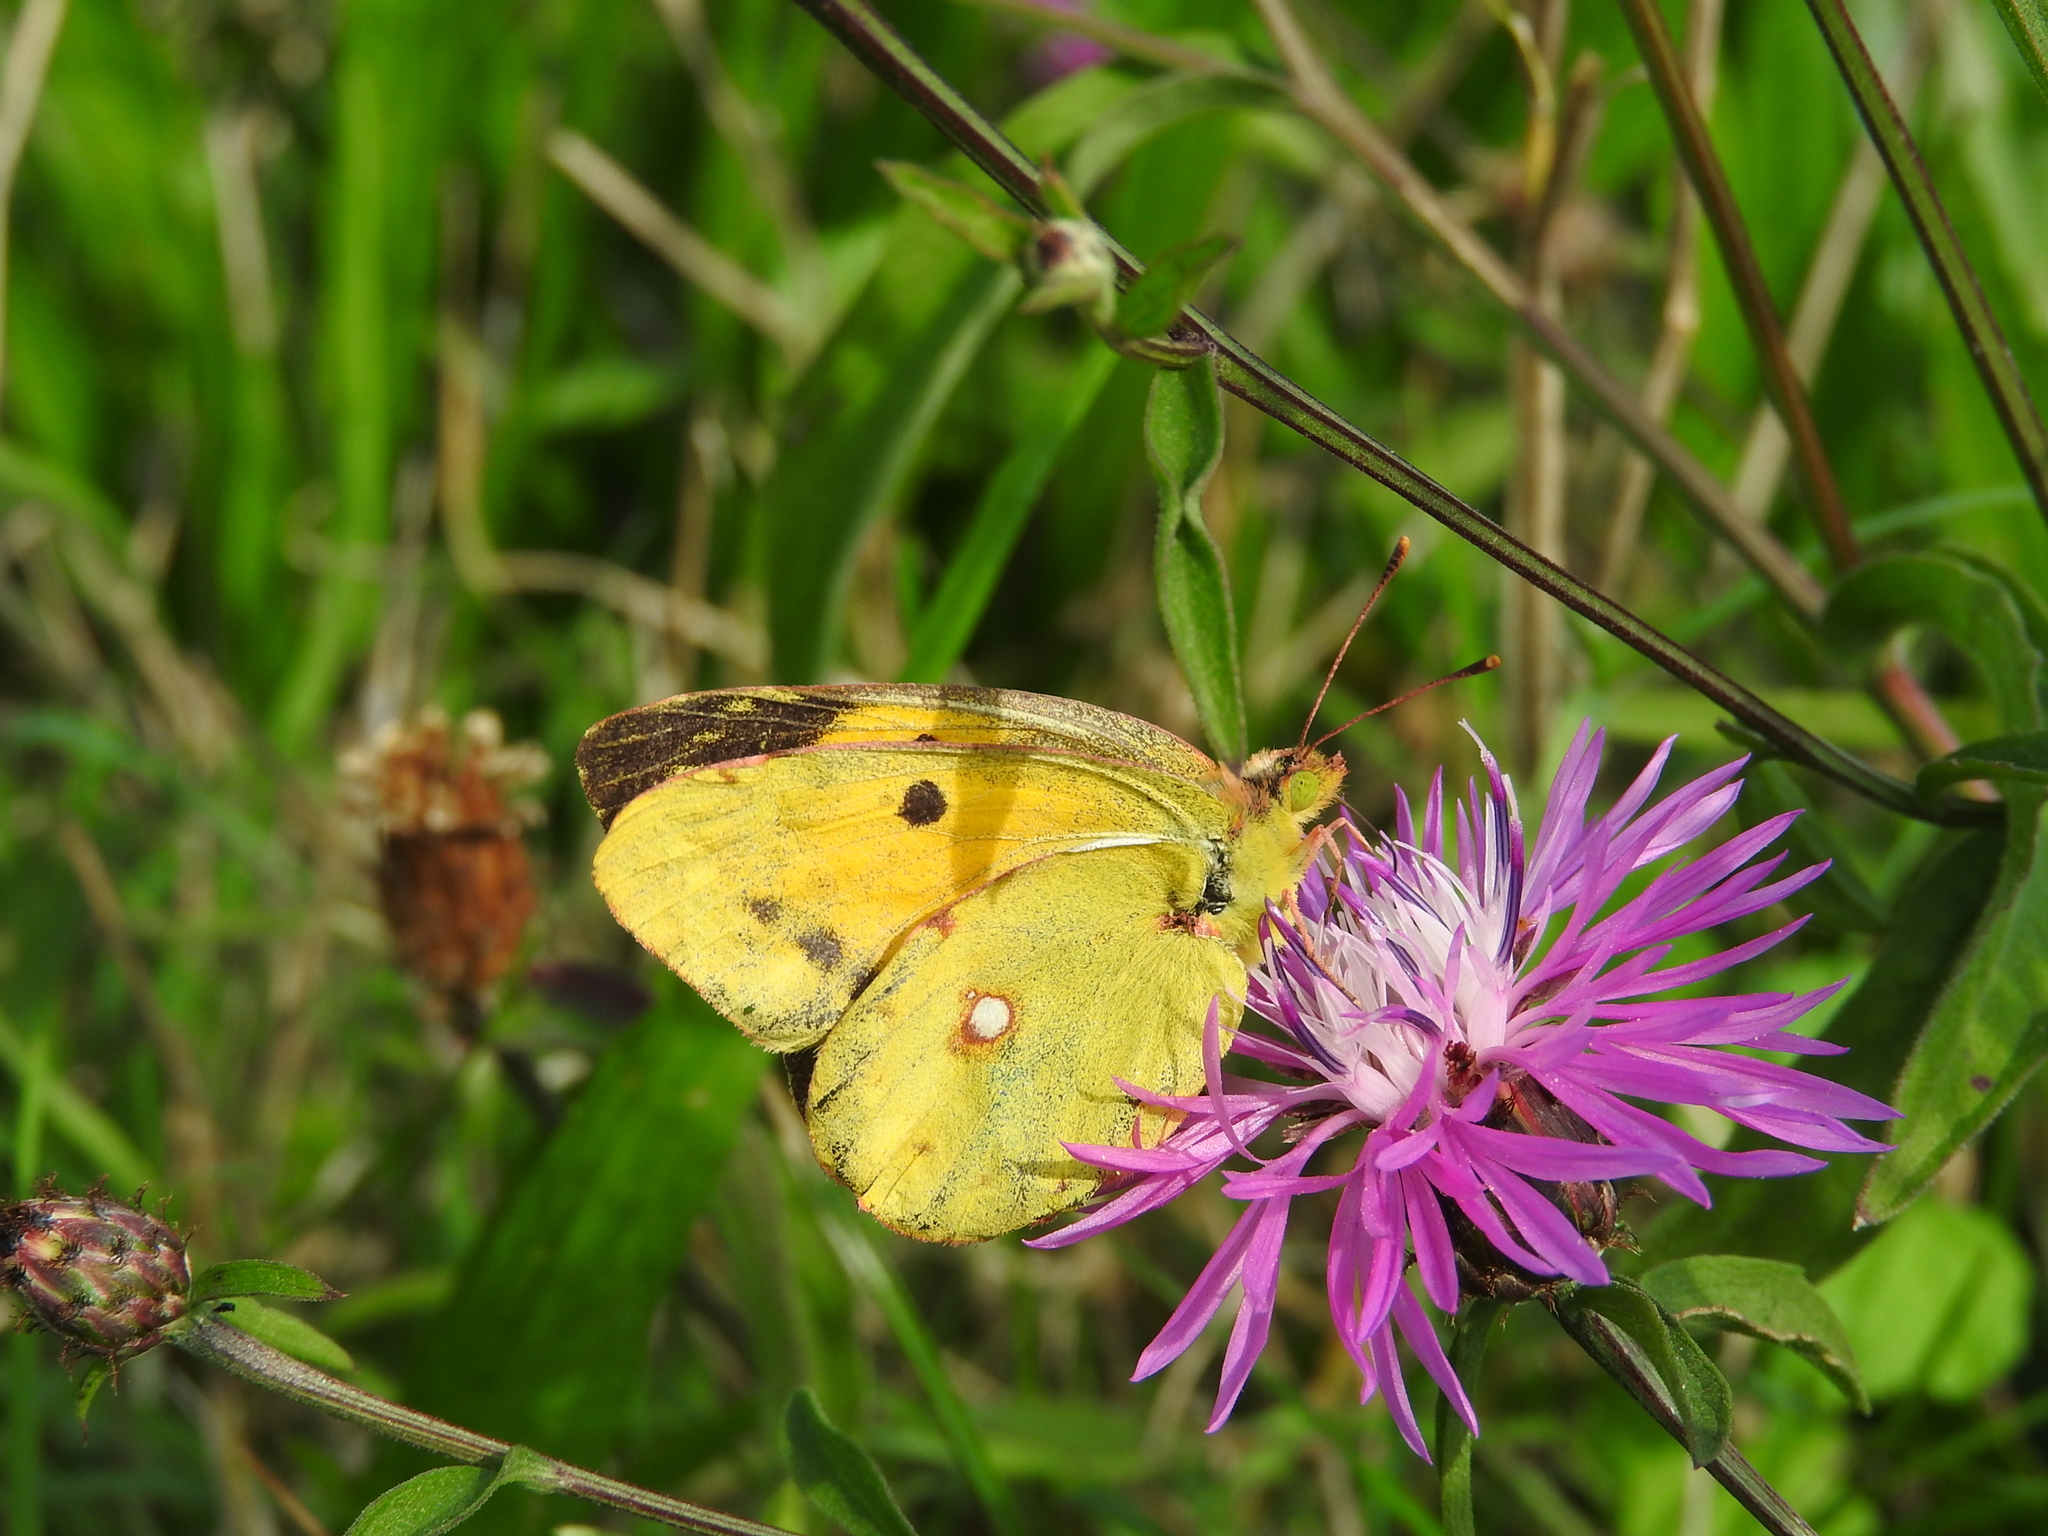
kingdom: Animalia
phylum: Arthropoda
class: Insecta
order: Lepidoptera
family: Pieridae
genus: Colias
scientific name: Colias croceus
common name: Clouded yellow
